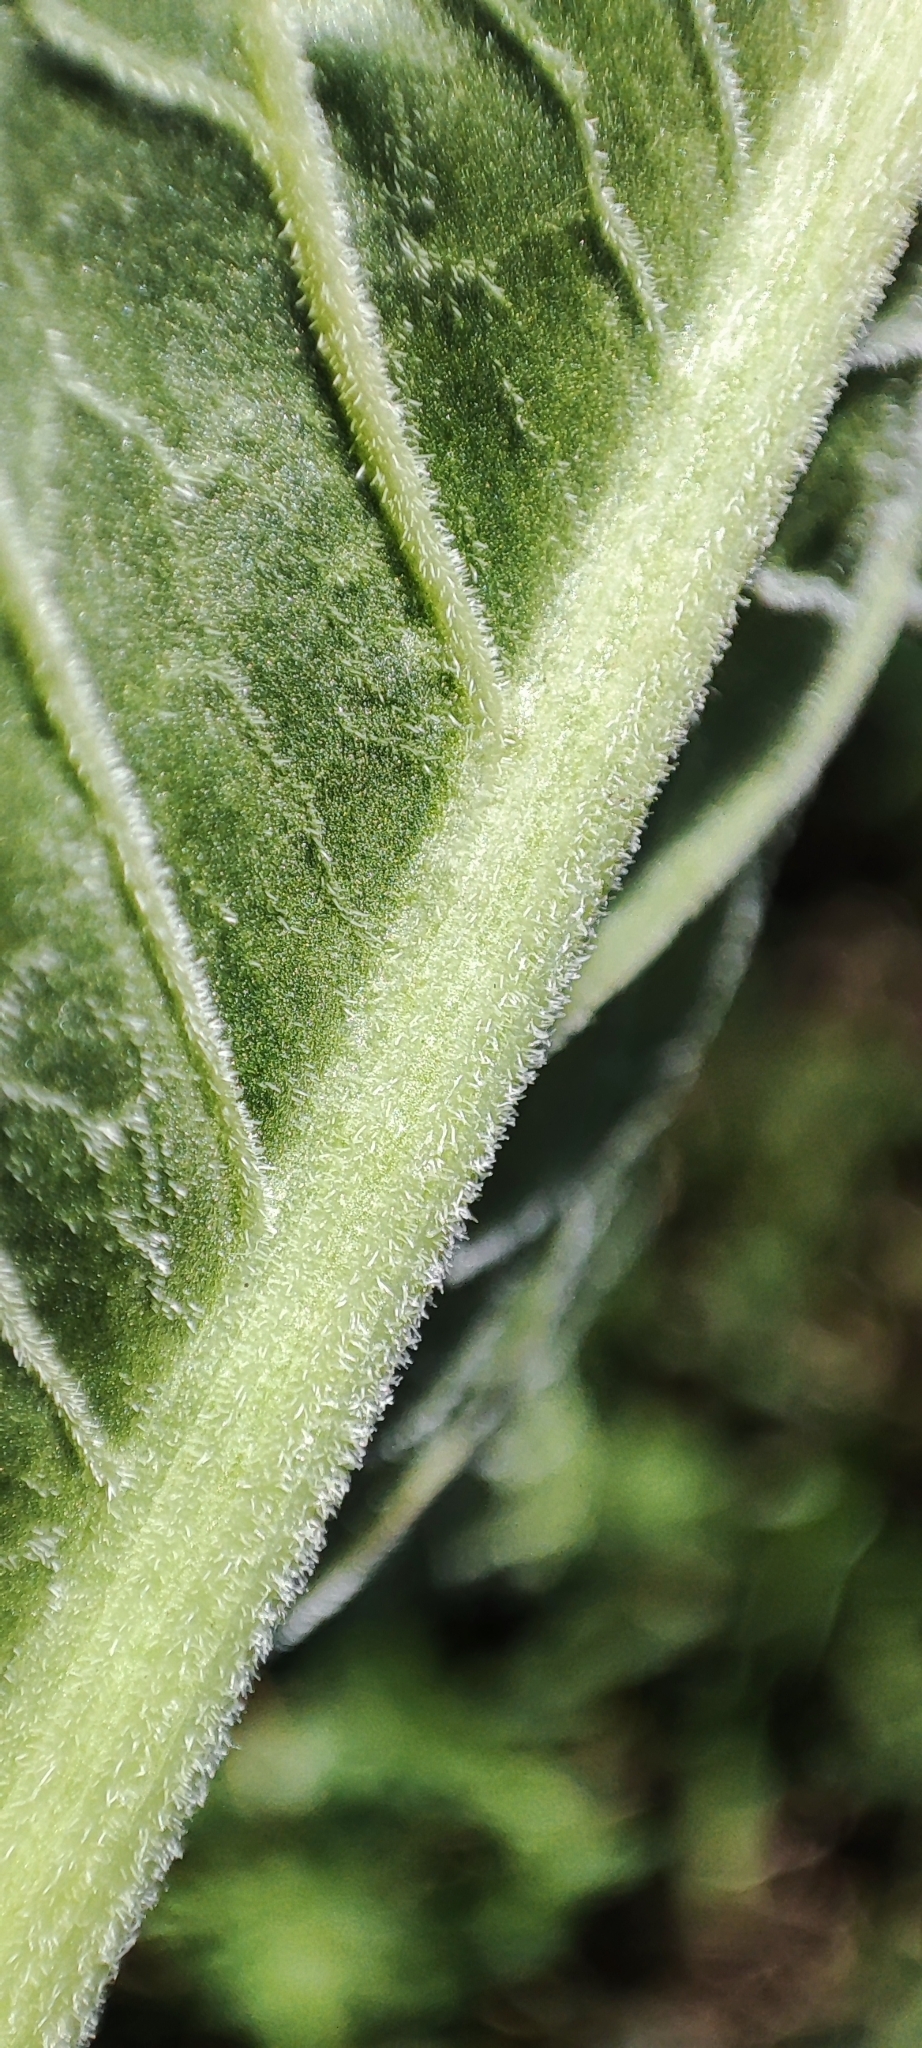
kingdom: Plantae
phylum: Tracheophyta
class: Magnoliopsida
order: Caryophyllales
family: Polygonaceae
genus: Rumex
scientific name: Rumex confertus
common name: Russian dock
